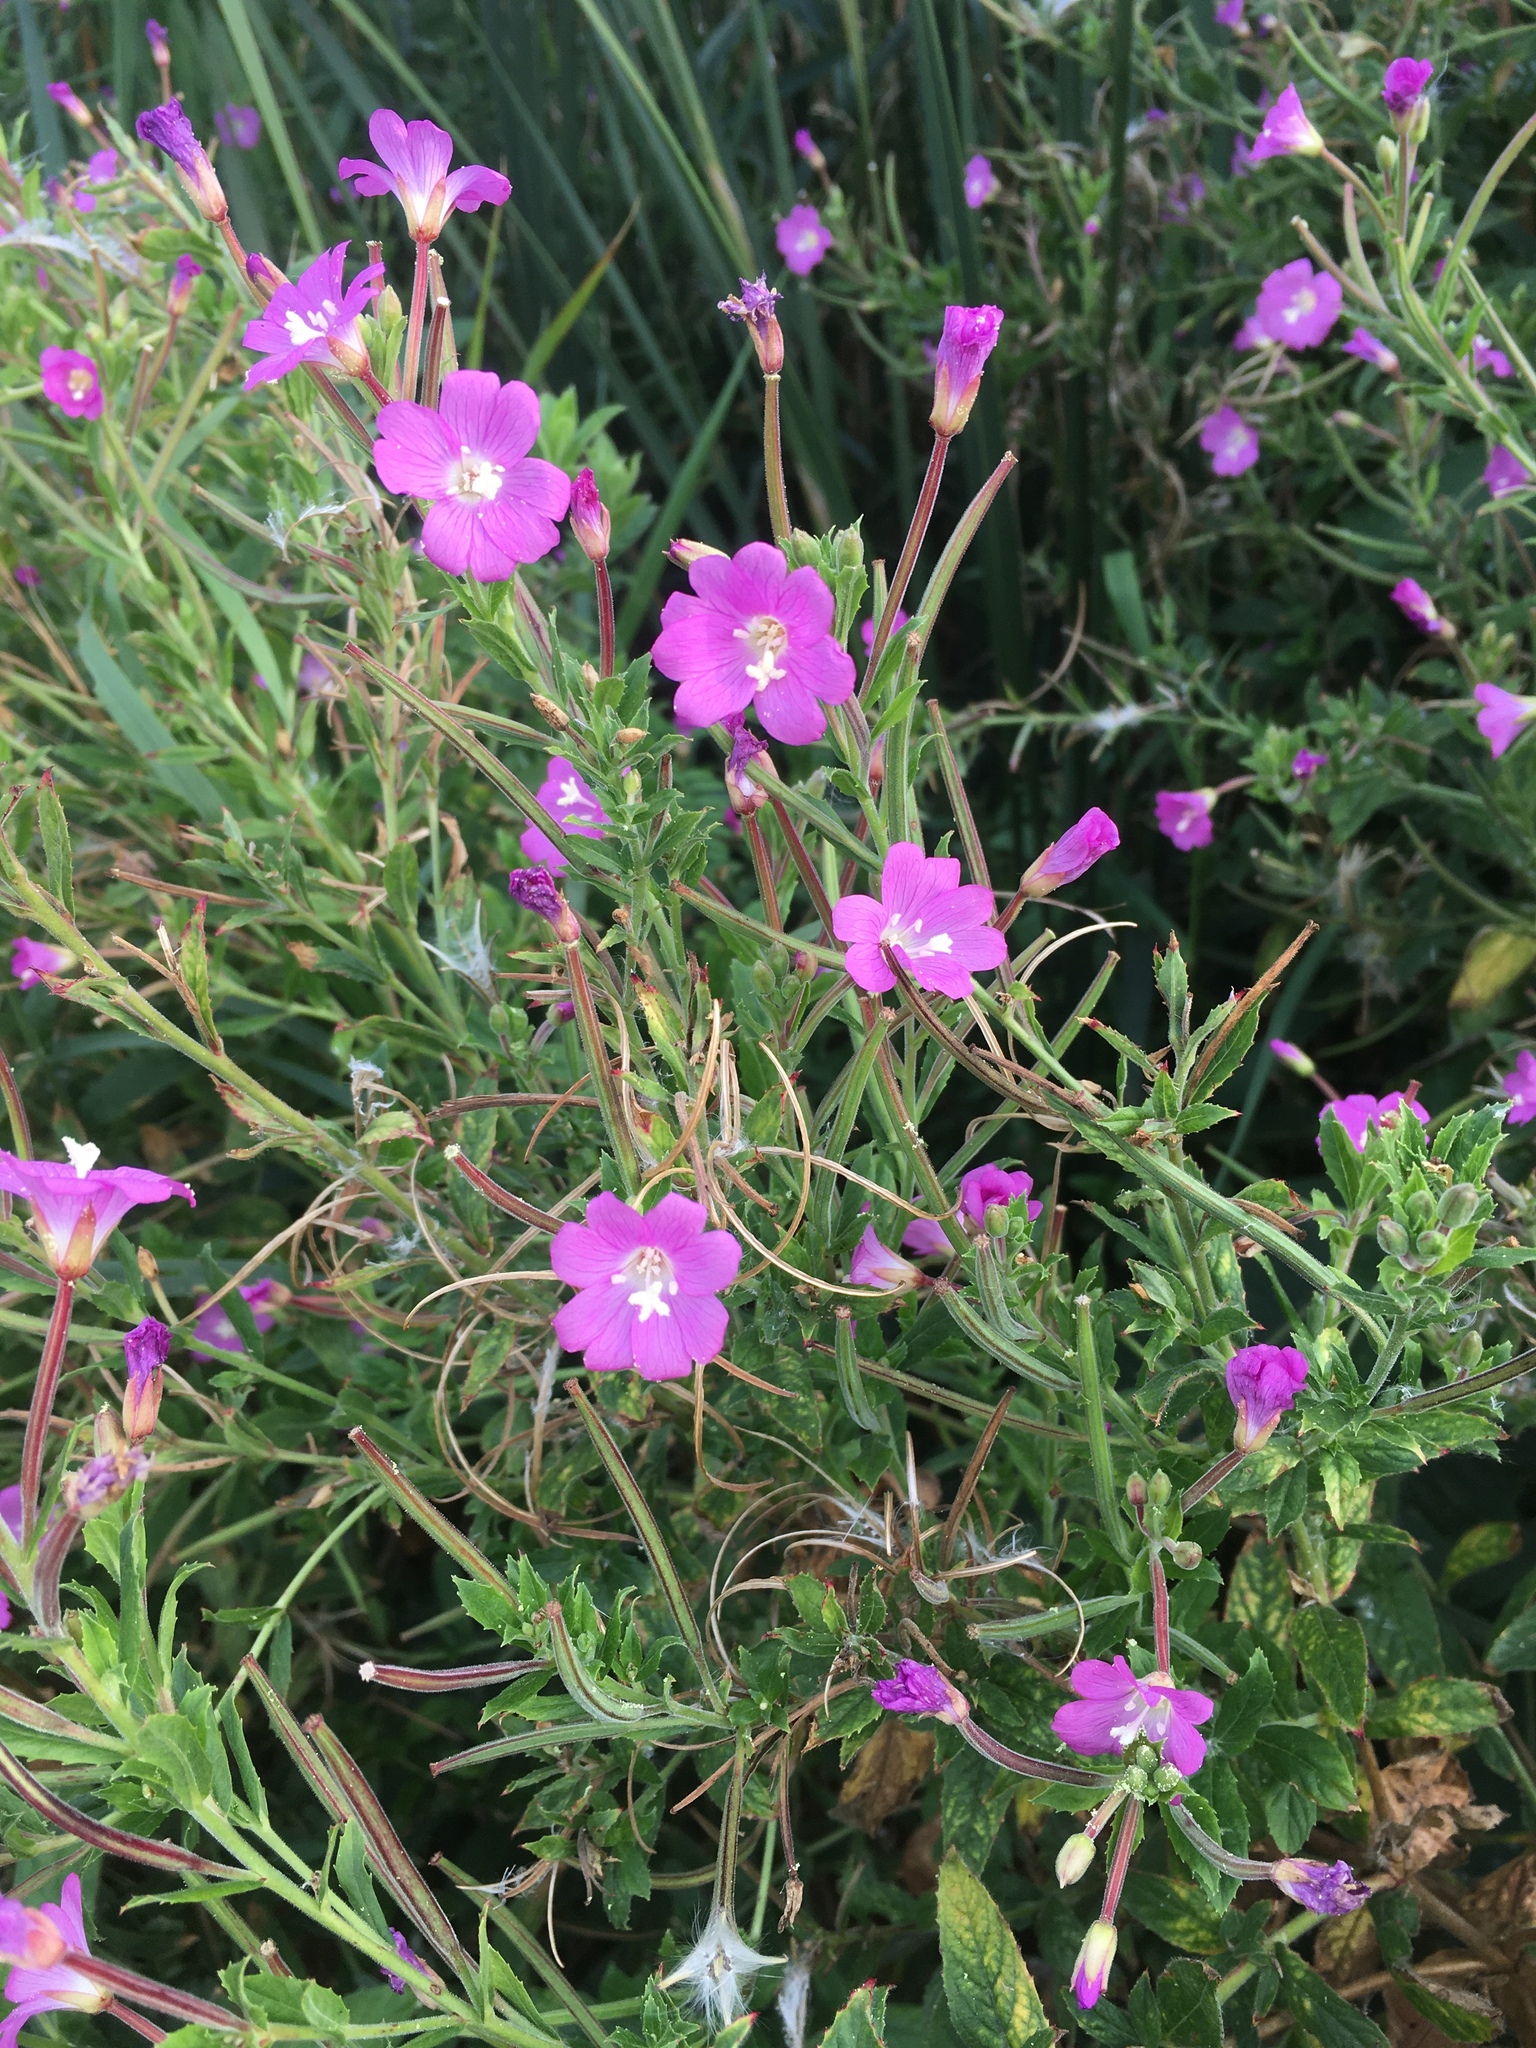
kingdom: Plantae
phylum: Tracheophyta
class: Magnoliopsida
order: Myrtales
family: Onagraceae
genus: Epilobium
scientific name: Epilobium hirsutum
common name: Great willowherb
